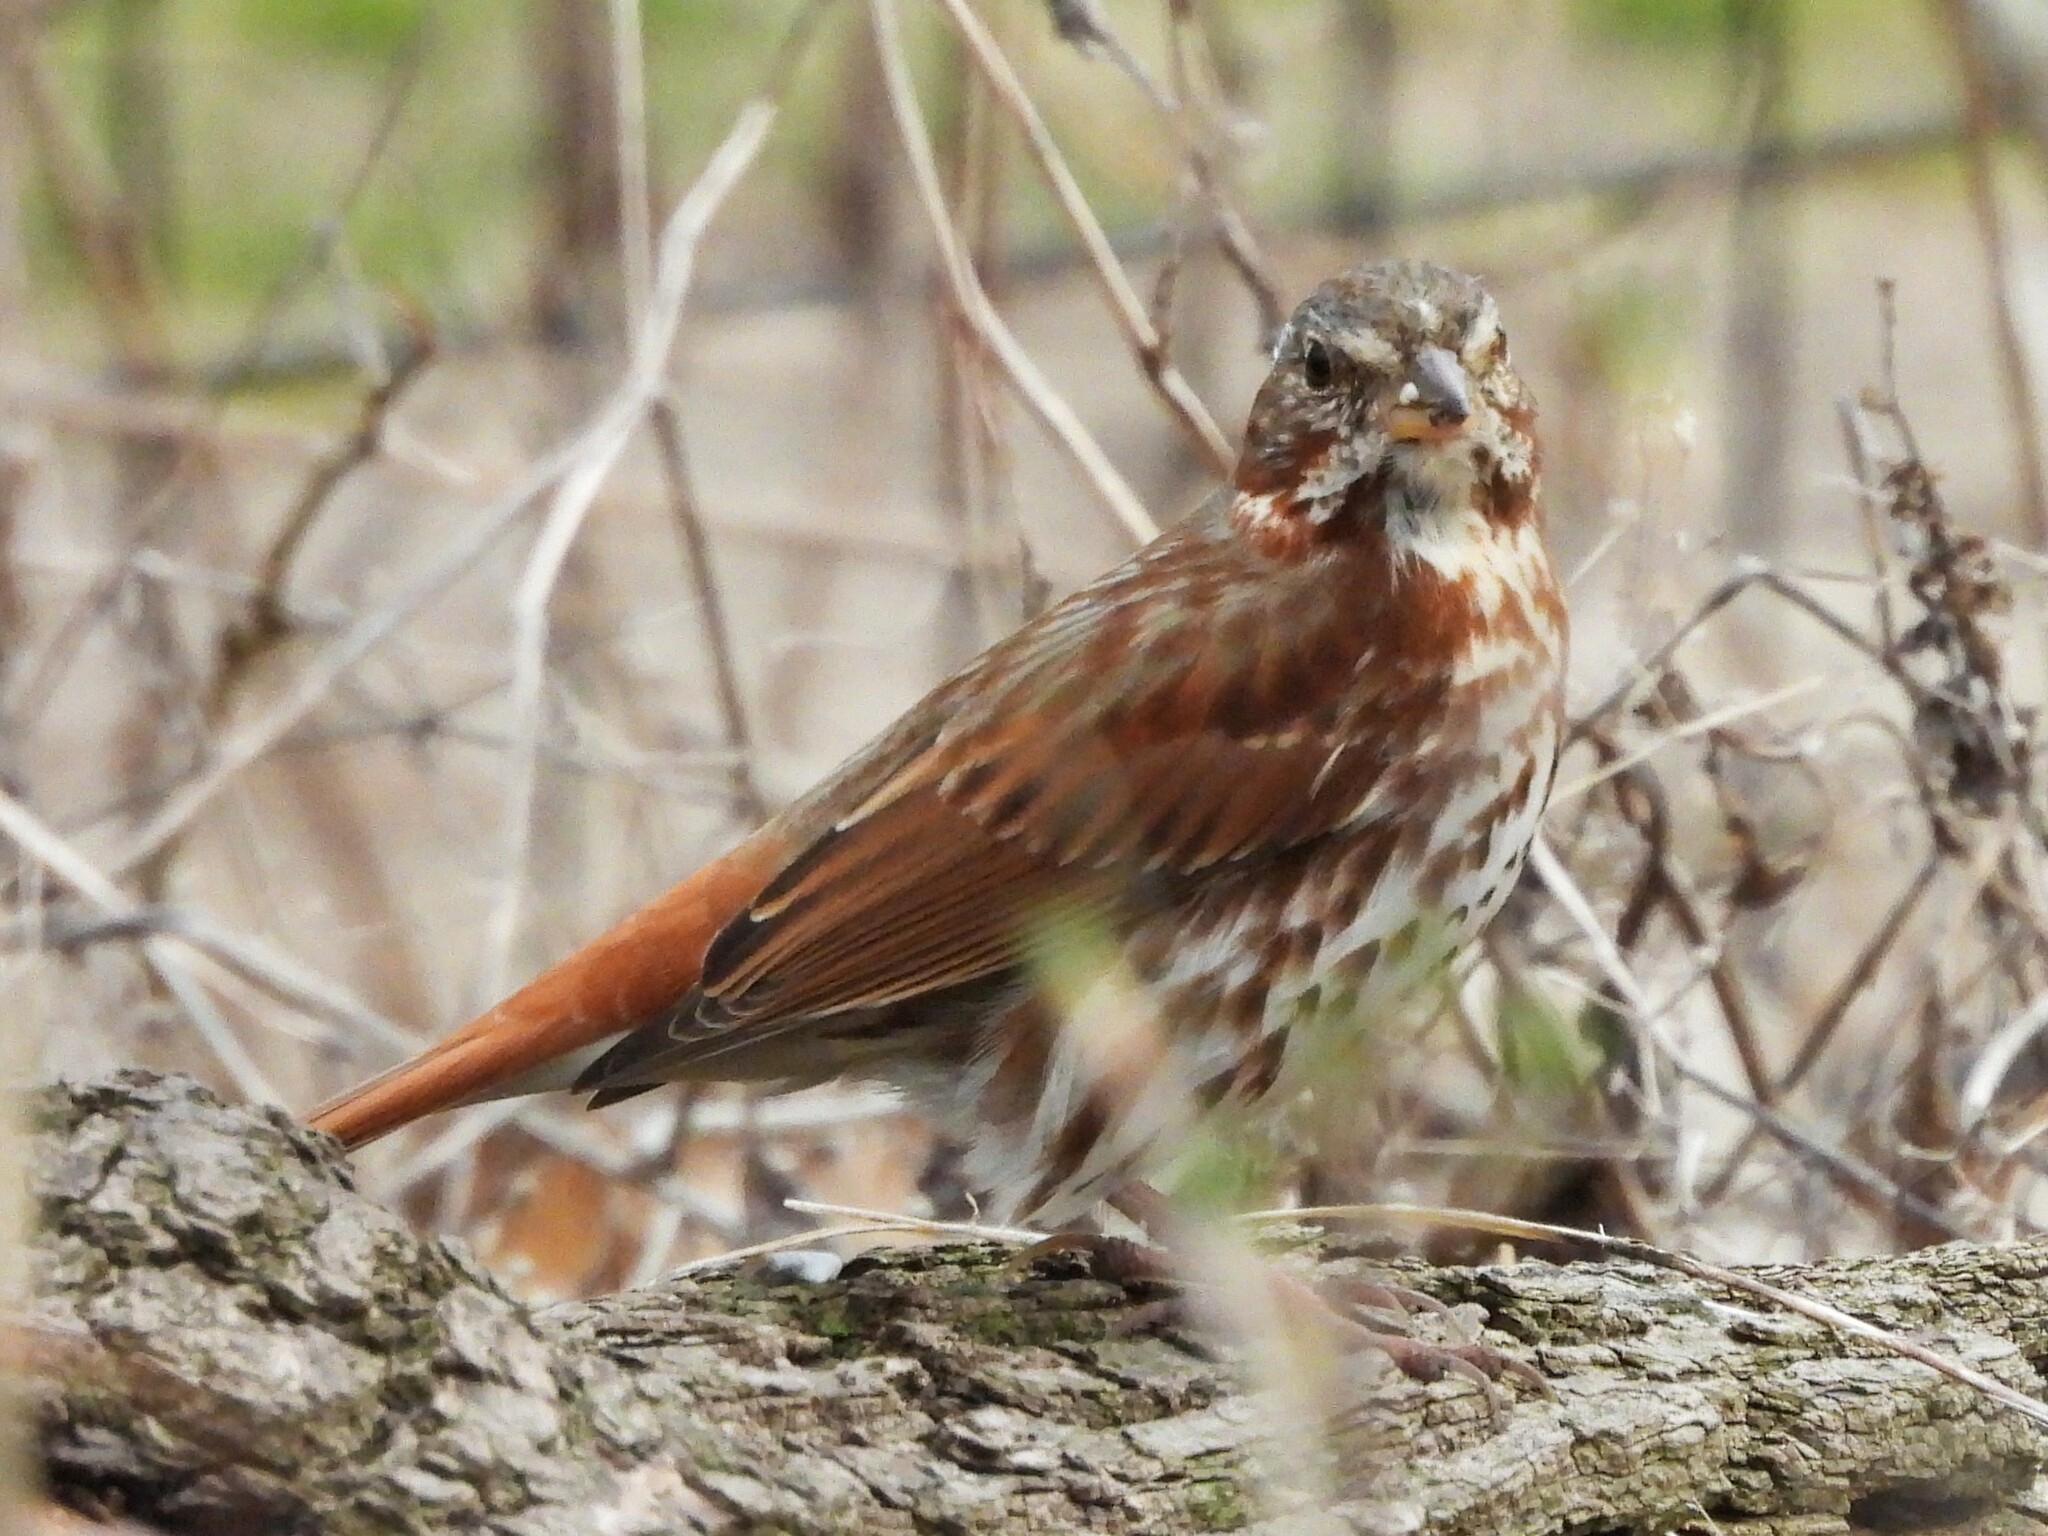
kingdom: Animalia
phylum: Chordata
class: Aves
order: Passeriformes
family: Passerellidae
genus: Passerella
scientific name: Passerella iliaca
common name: Fox sparrow
